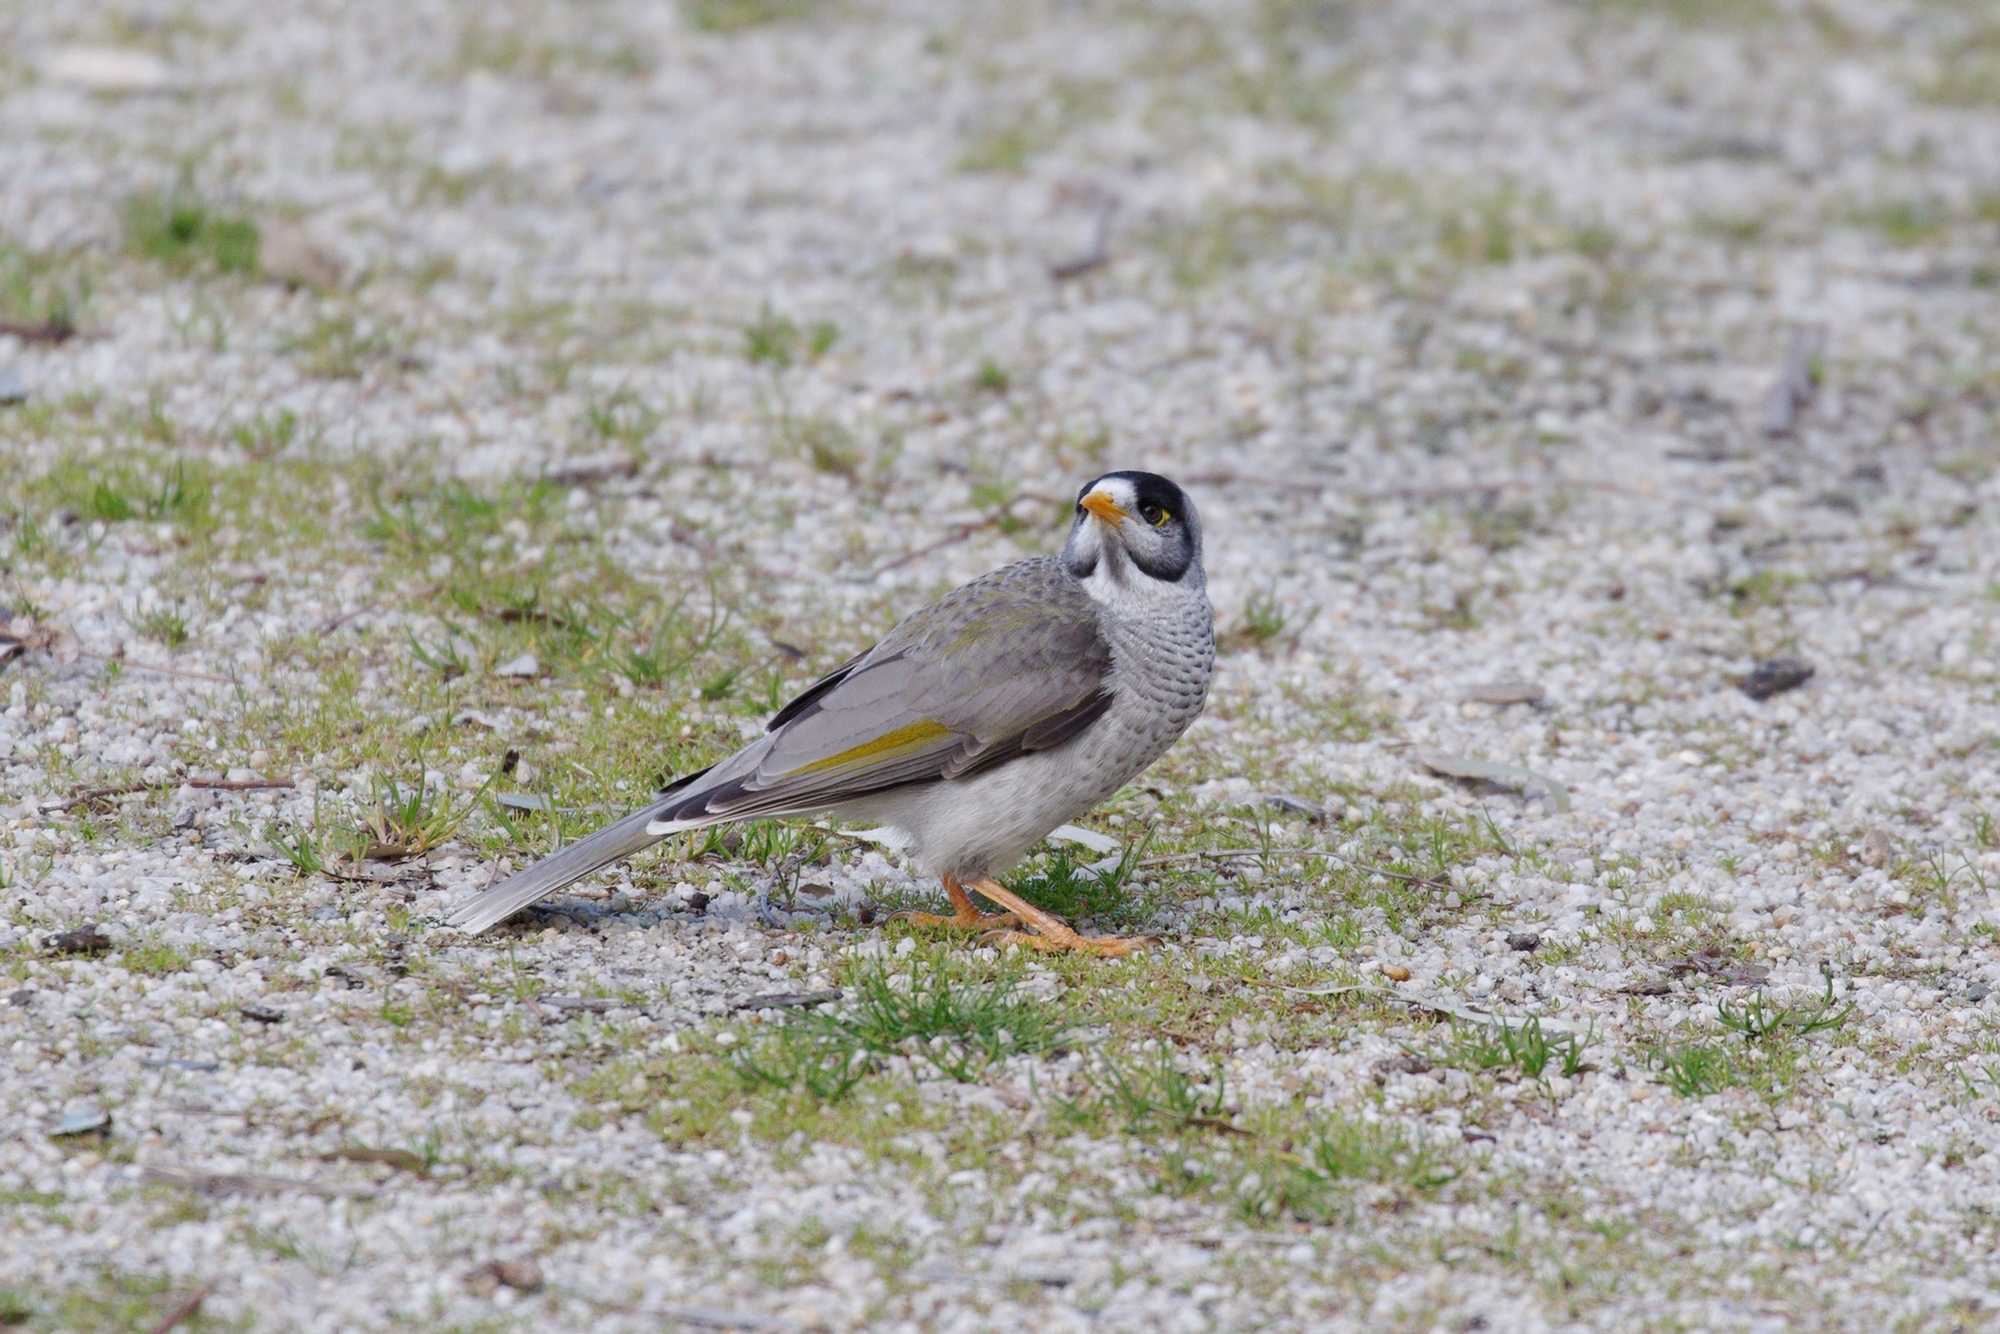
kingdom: Animalia
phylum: Chordata
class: Aves
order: Passeriformes
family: Meliphagidae
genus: Manorina
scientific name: Manorina melanocephala
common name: Noisy miner
